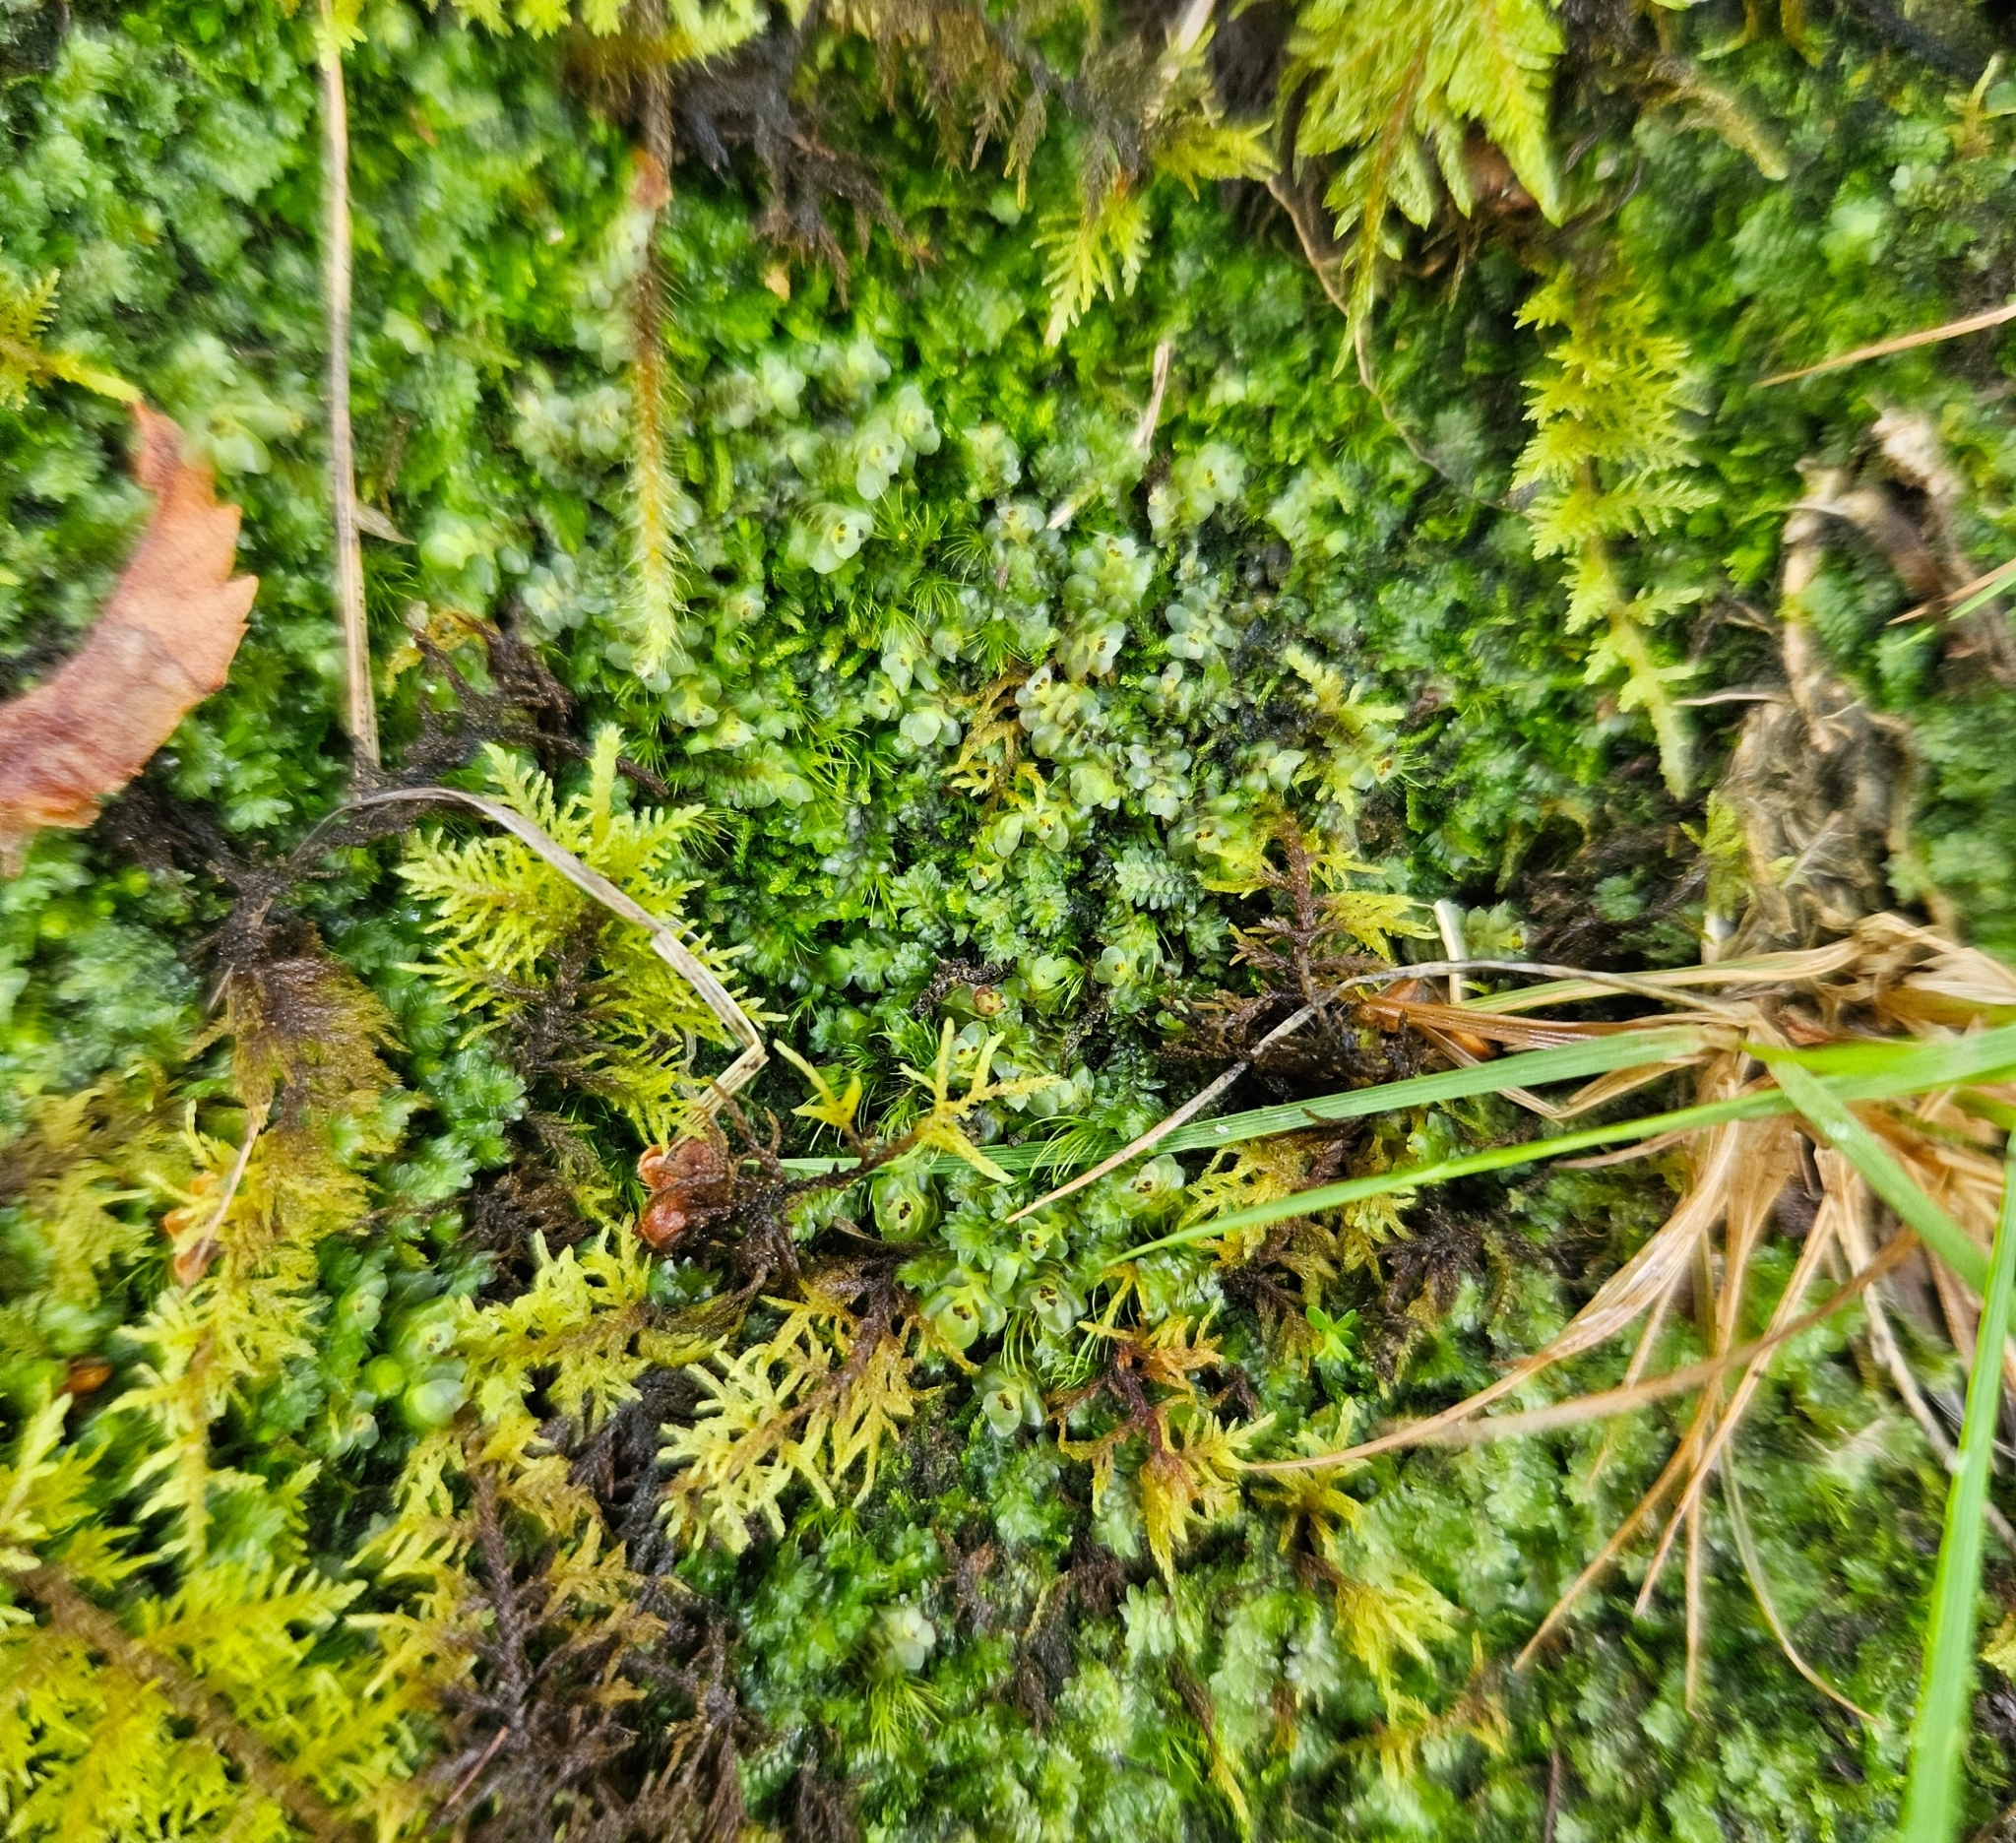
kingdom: Plantae
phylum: Marchantiophyta
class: Jungermanniopsida
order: Jungermanniales
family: Scapaniaceae
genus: Scapania
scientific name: Scapania nemorea
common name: Grove earwort
